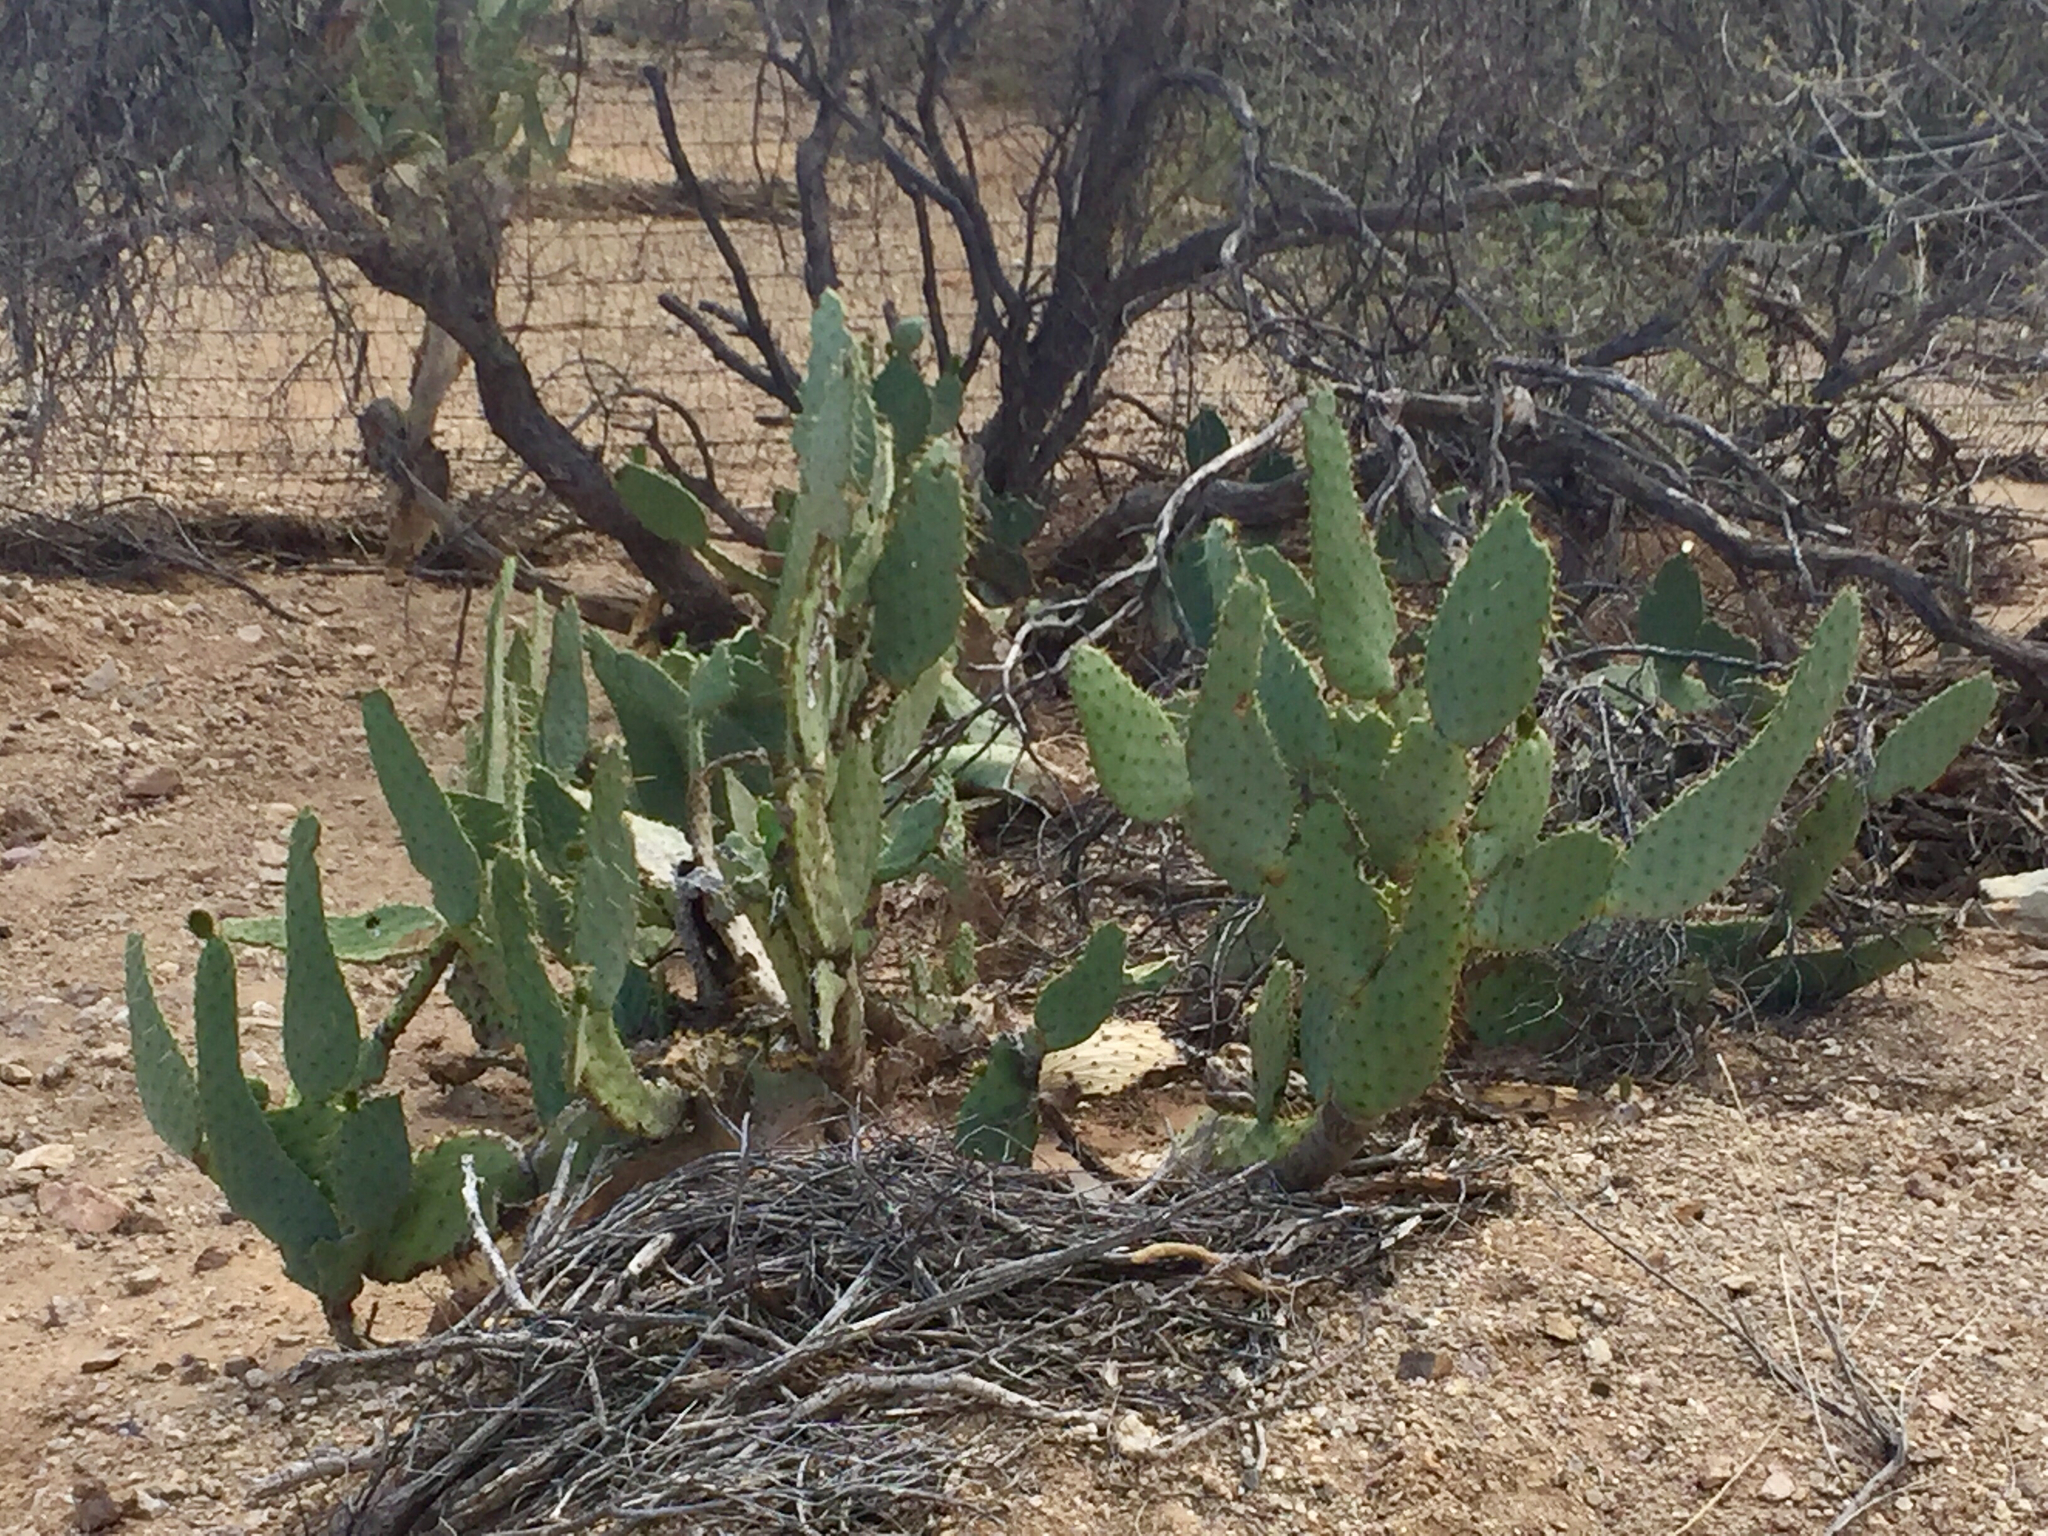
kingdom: Plantae
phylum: Tracheophyta
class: Magnoliopsida
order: Caryophyllales
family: Cactaceae
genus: Opuntia
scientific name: Opuntia engelmannii
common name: Cactus-apple
